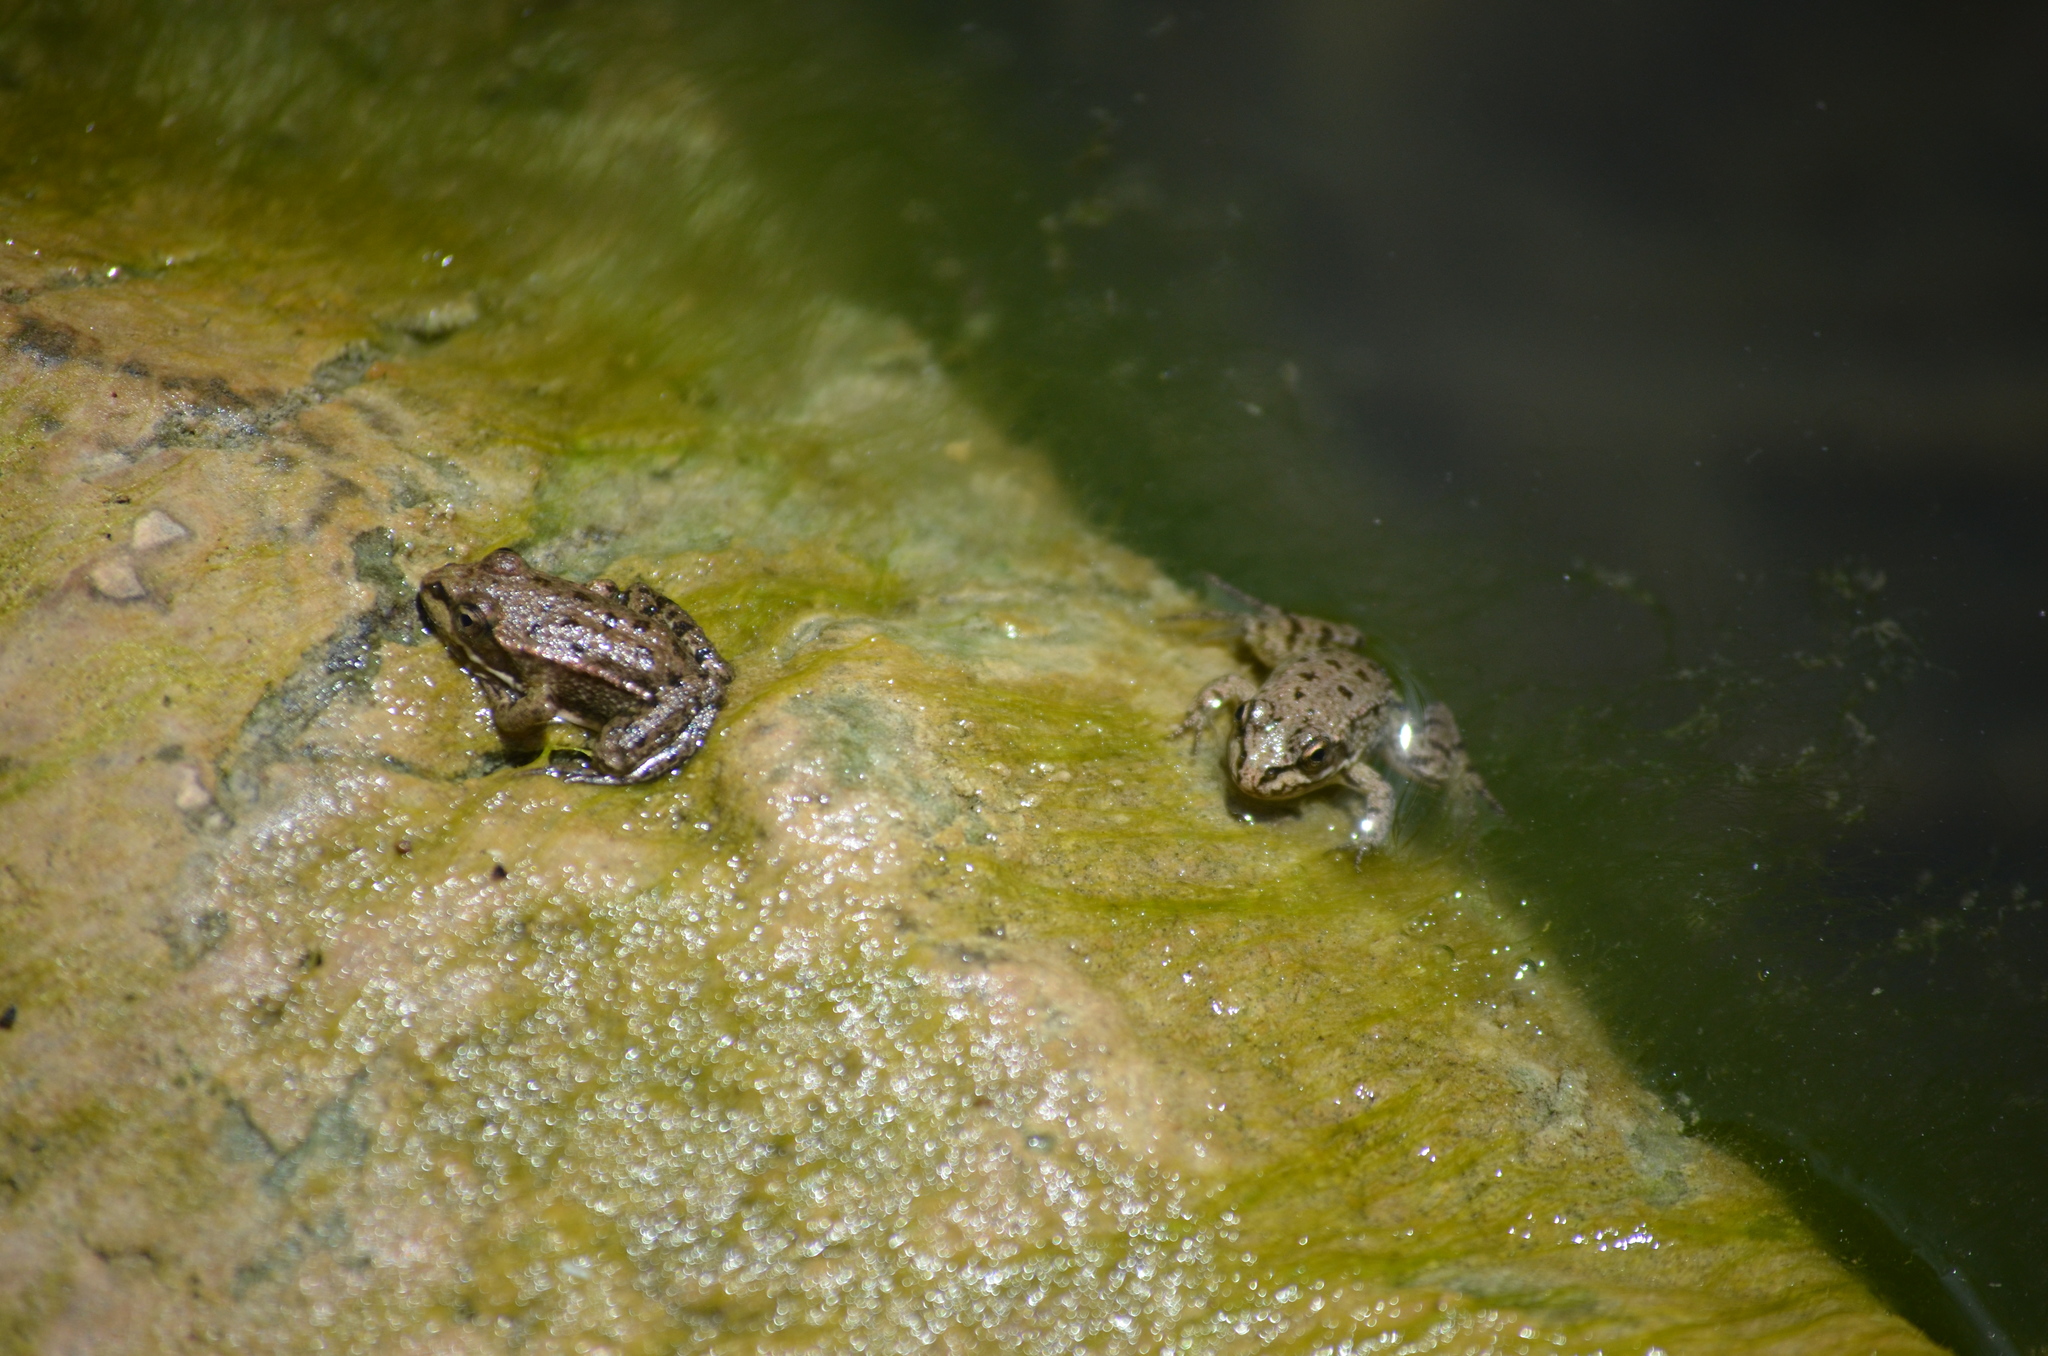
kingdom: Animalia
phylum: Chordata
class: Amphibia
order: Anura
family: Ranidae
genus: Pelophylax
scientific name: Pelophylax perezi
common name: Perez's frog
